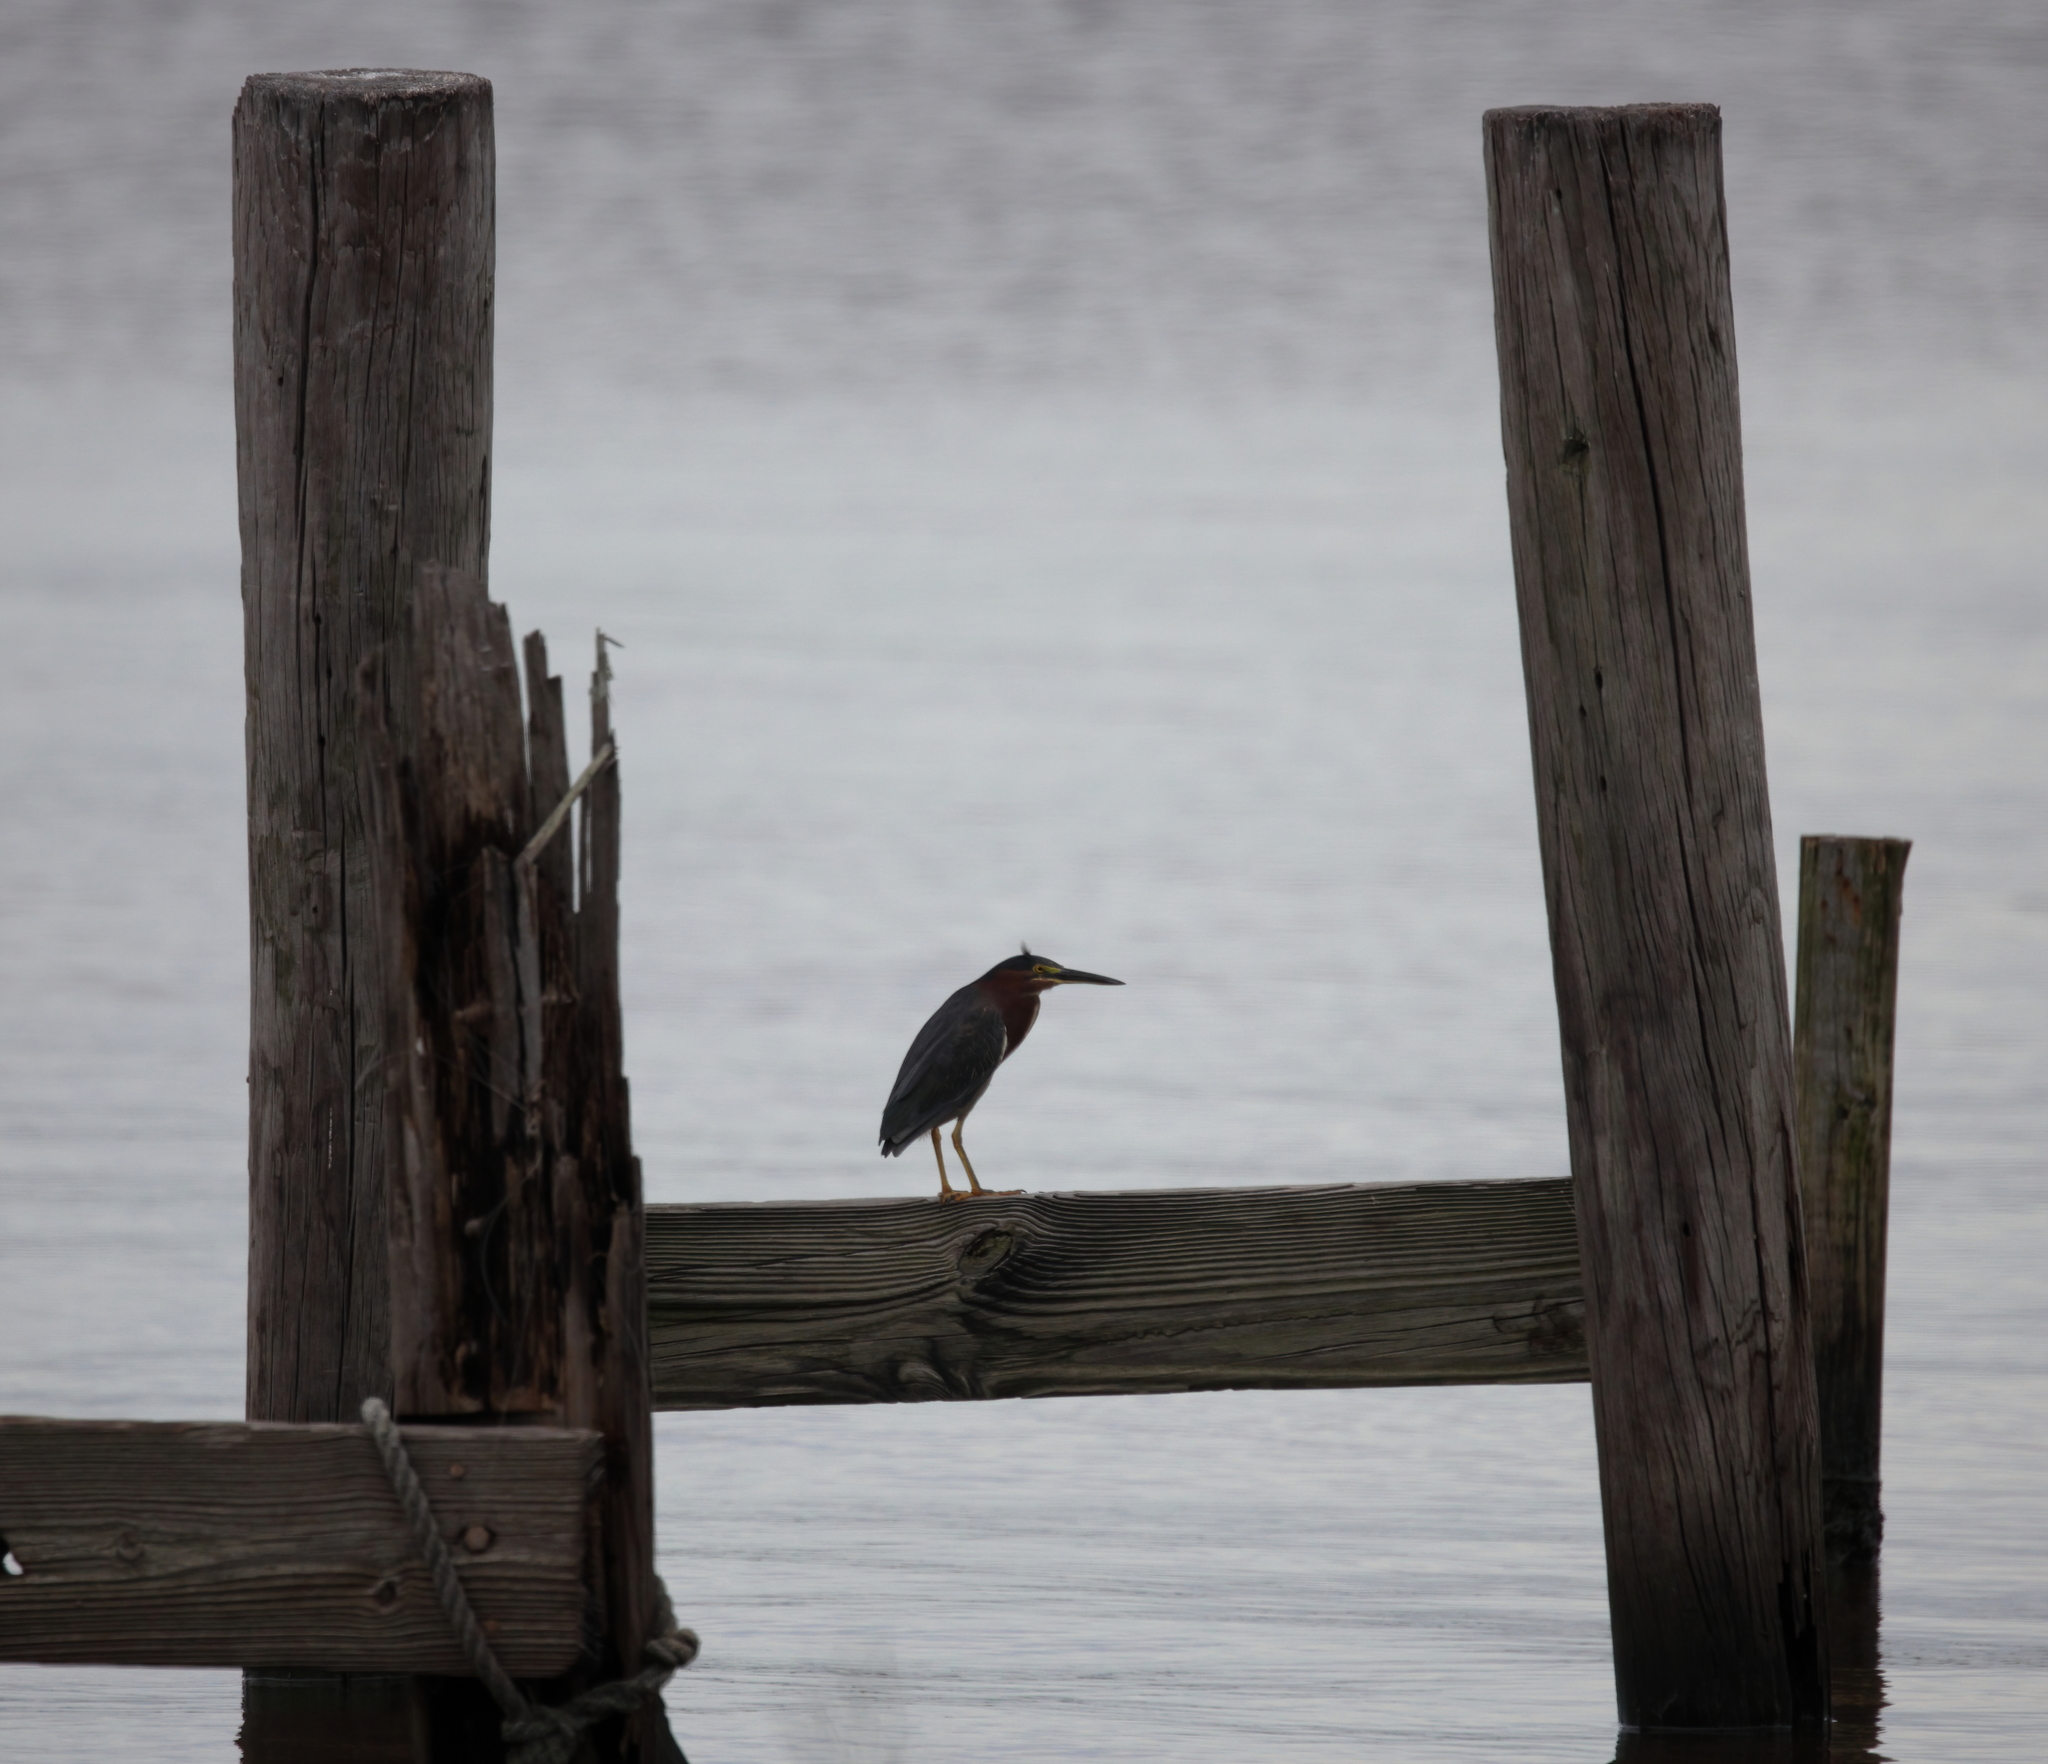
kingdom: Animalia
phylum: Chordata
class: Aves
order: Pelecaniformes
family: Ardeidae
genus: Butorides
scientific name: Butorides virescens
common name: Green heron
